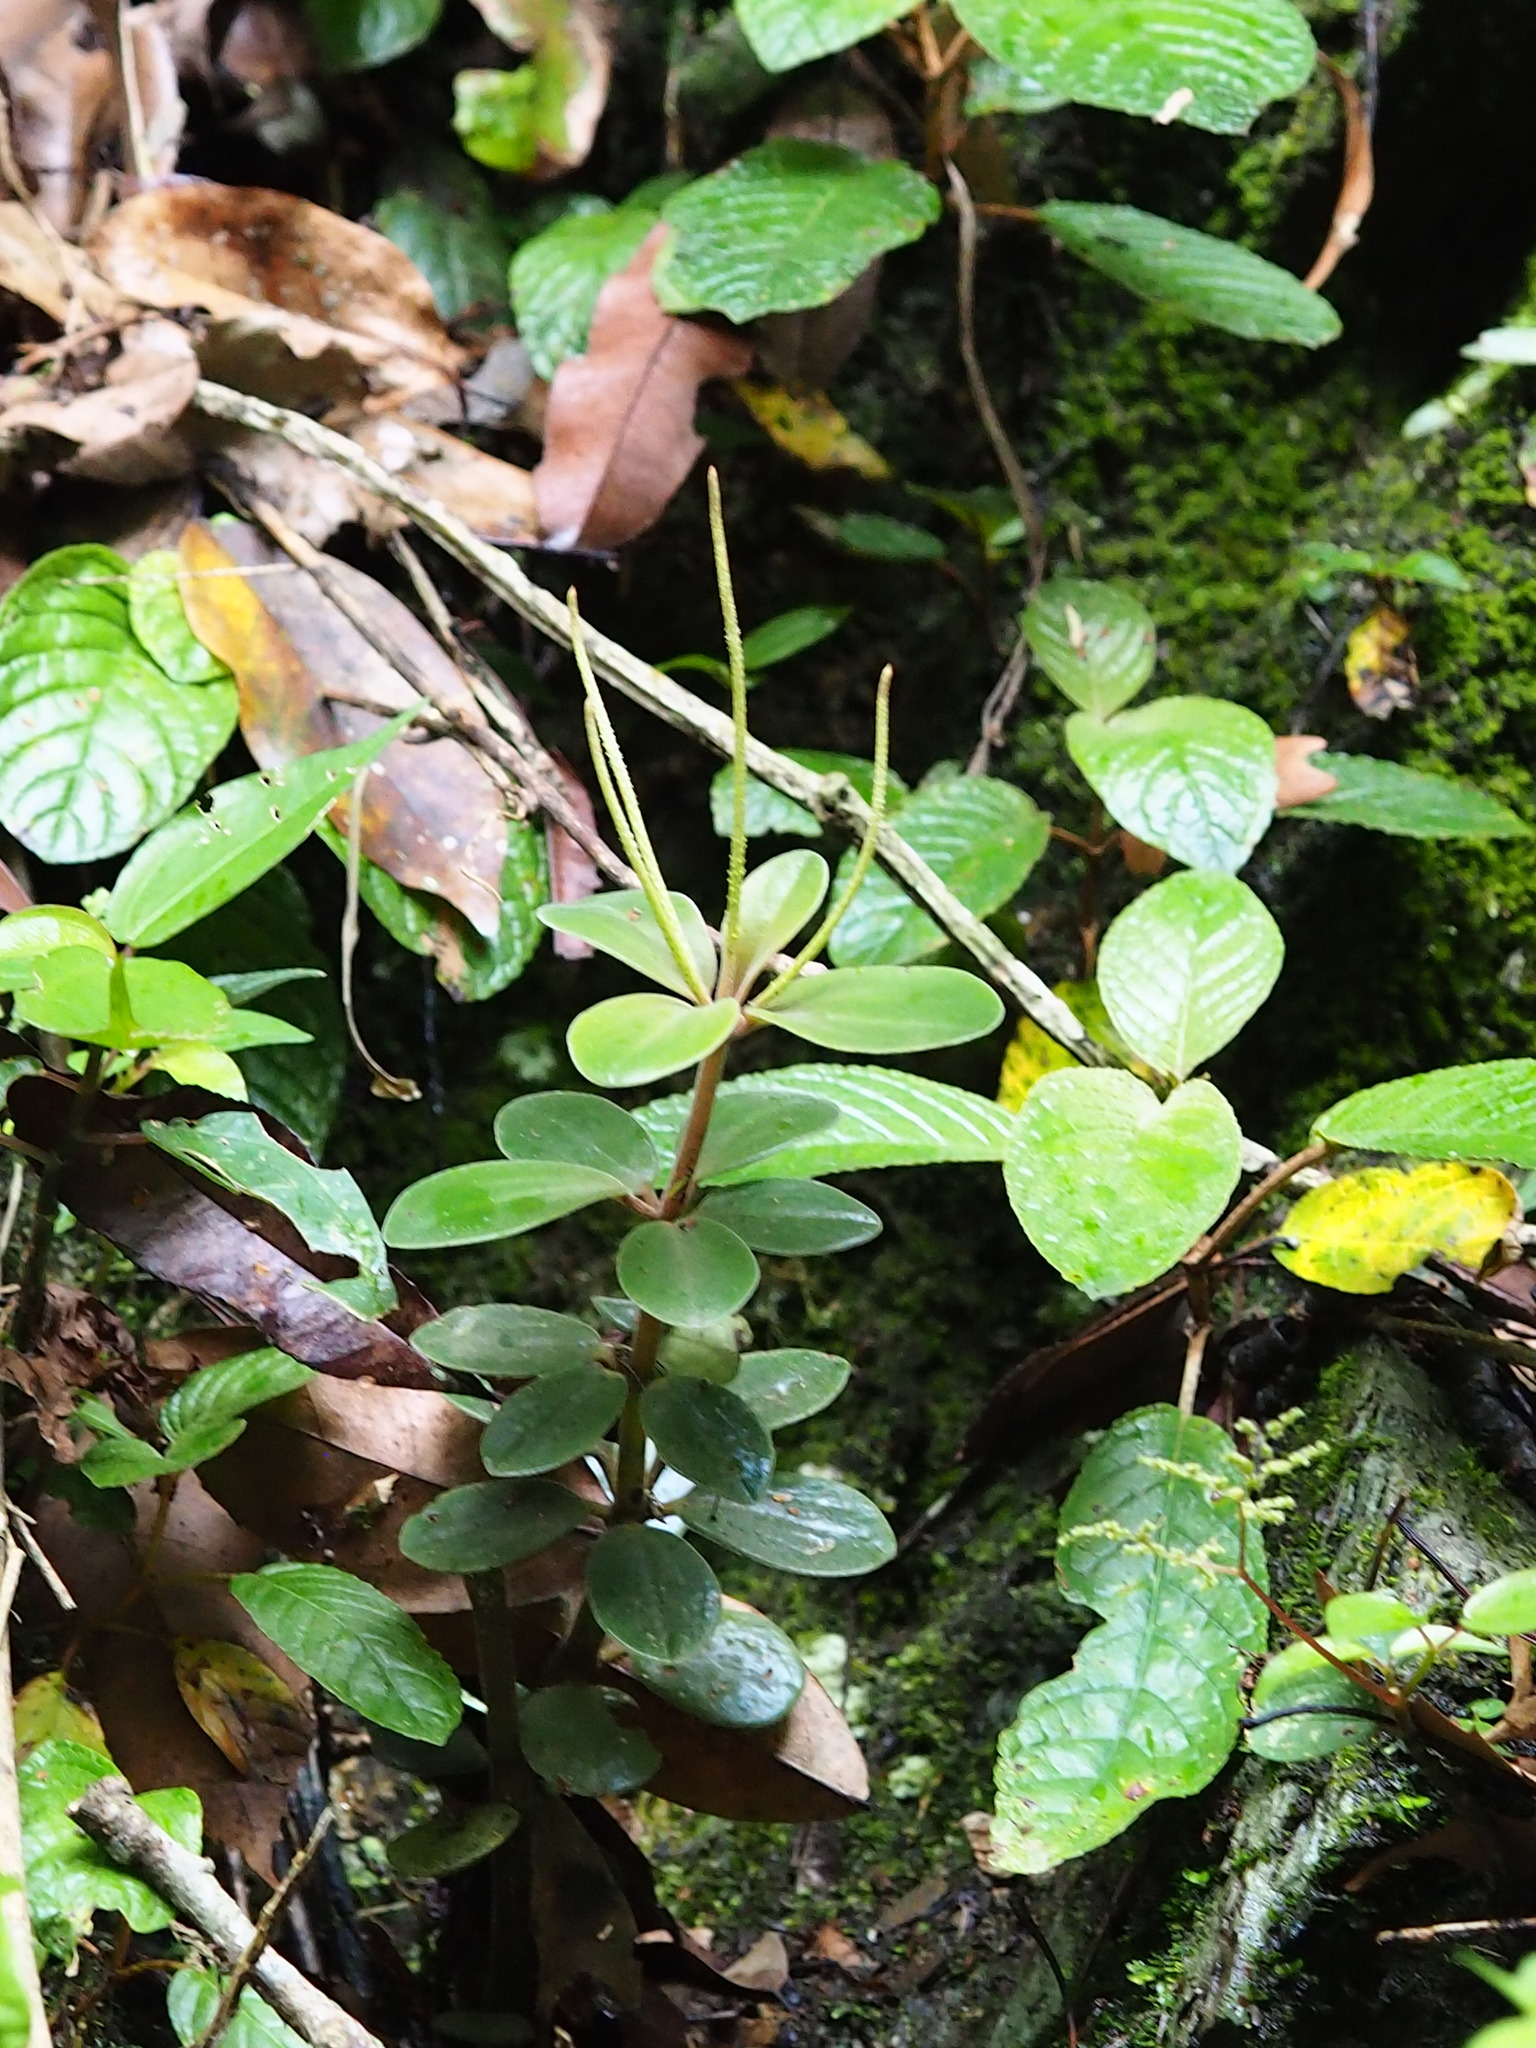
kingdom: Plantae
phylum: Tracheophyta
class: Magnoliopsida
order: Piperales
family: Piperaceae
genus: Peperomia
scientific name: Peperomia japonica
